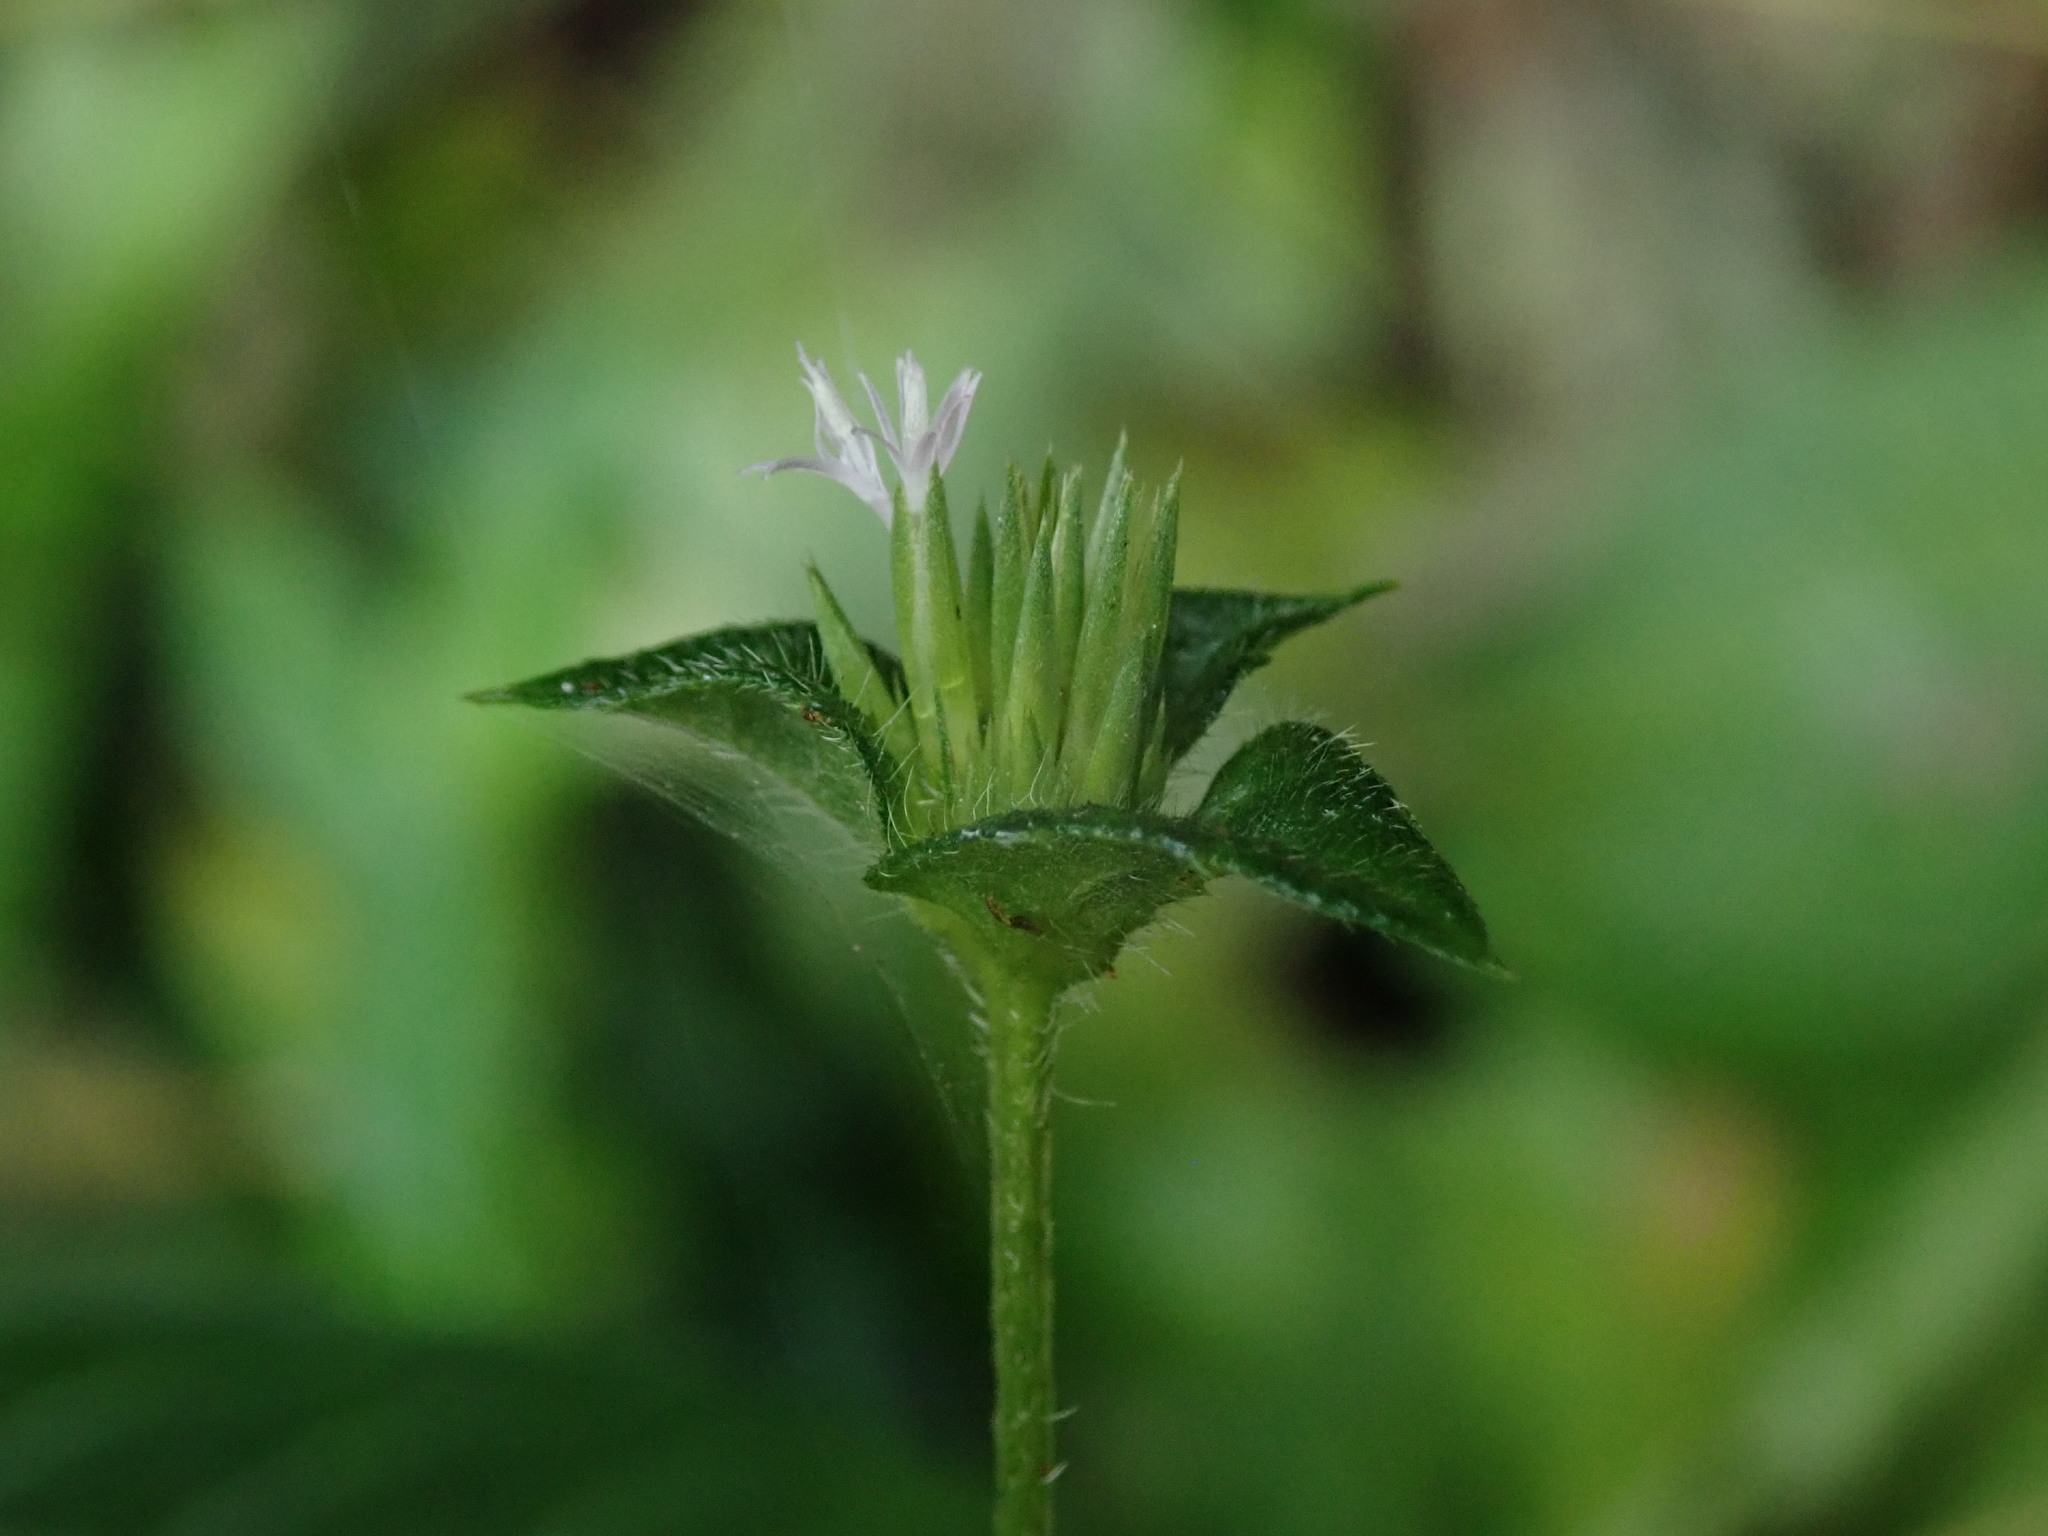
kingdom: Plantae
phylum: Tracheophyta
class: Magnoliopsida
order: Asterales
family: Asteraceae
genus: Elephantopus
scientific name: Elephantopus mollis
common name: Soft elephantsfoot
